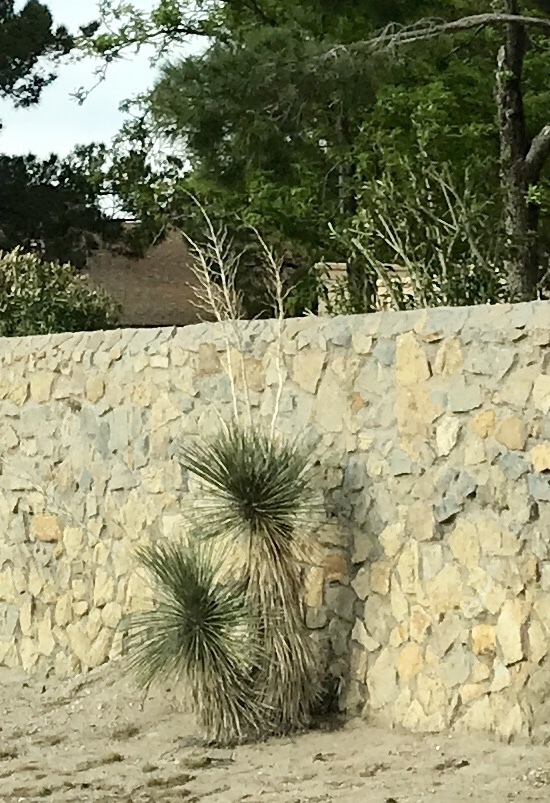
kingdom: Plantae
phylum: Tracheophyta
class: Liliopsida
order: Asparagales
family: Asparagaceae
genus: Yucca
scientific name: Yucca elata
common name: Palmella
